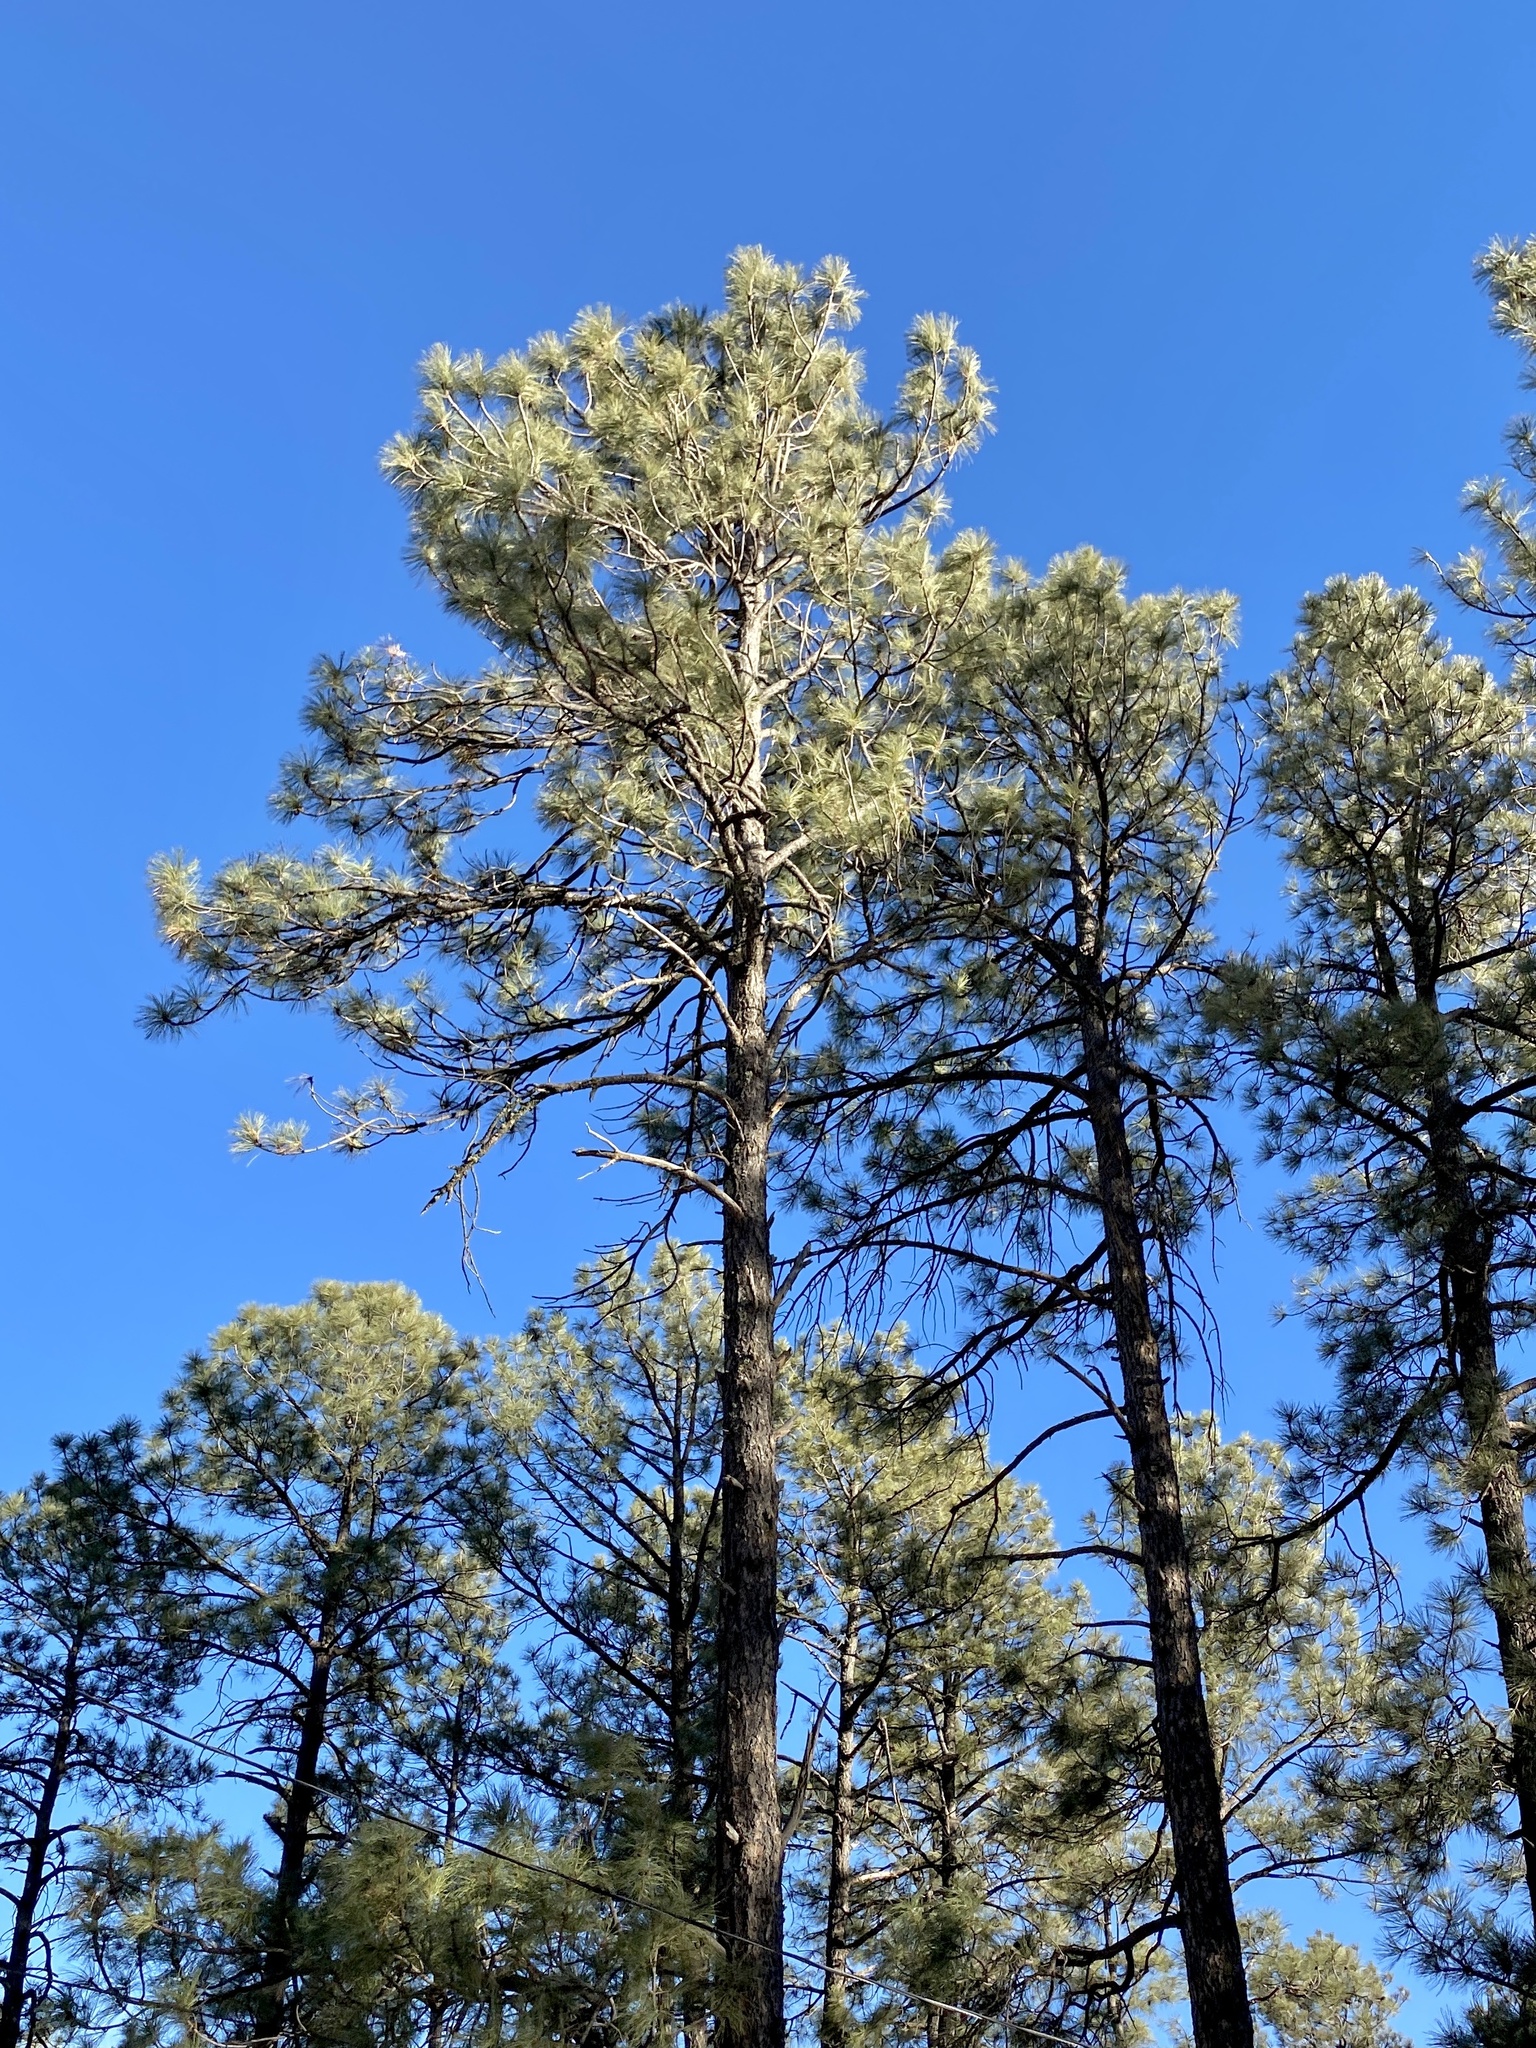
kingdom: Plantae
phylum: Tracheophyta
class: Pinopsida
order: Pinales
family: Pinaceae
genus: Pinus
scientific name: Pinus ponderosa
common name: Western yellow-pine
